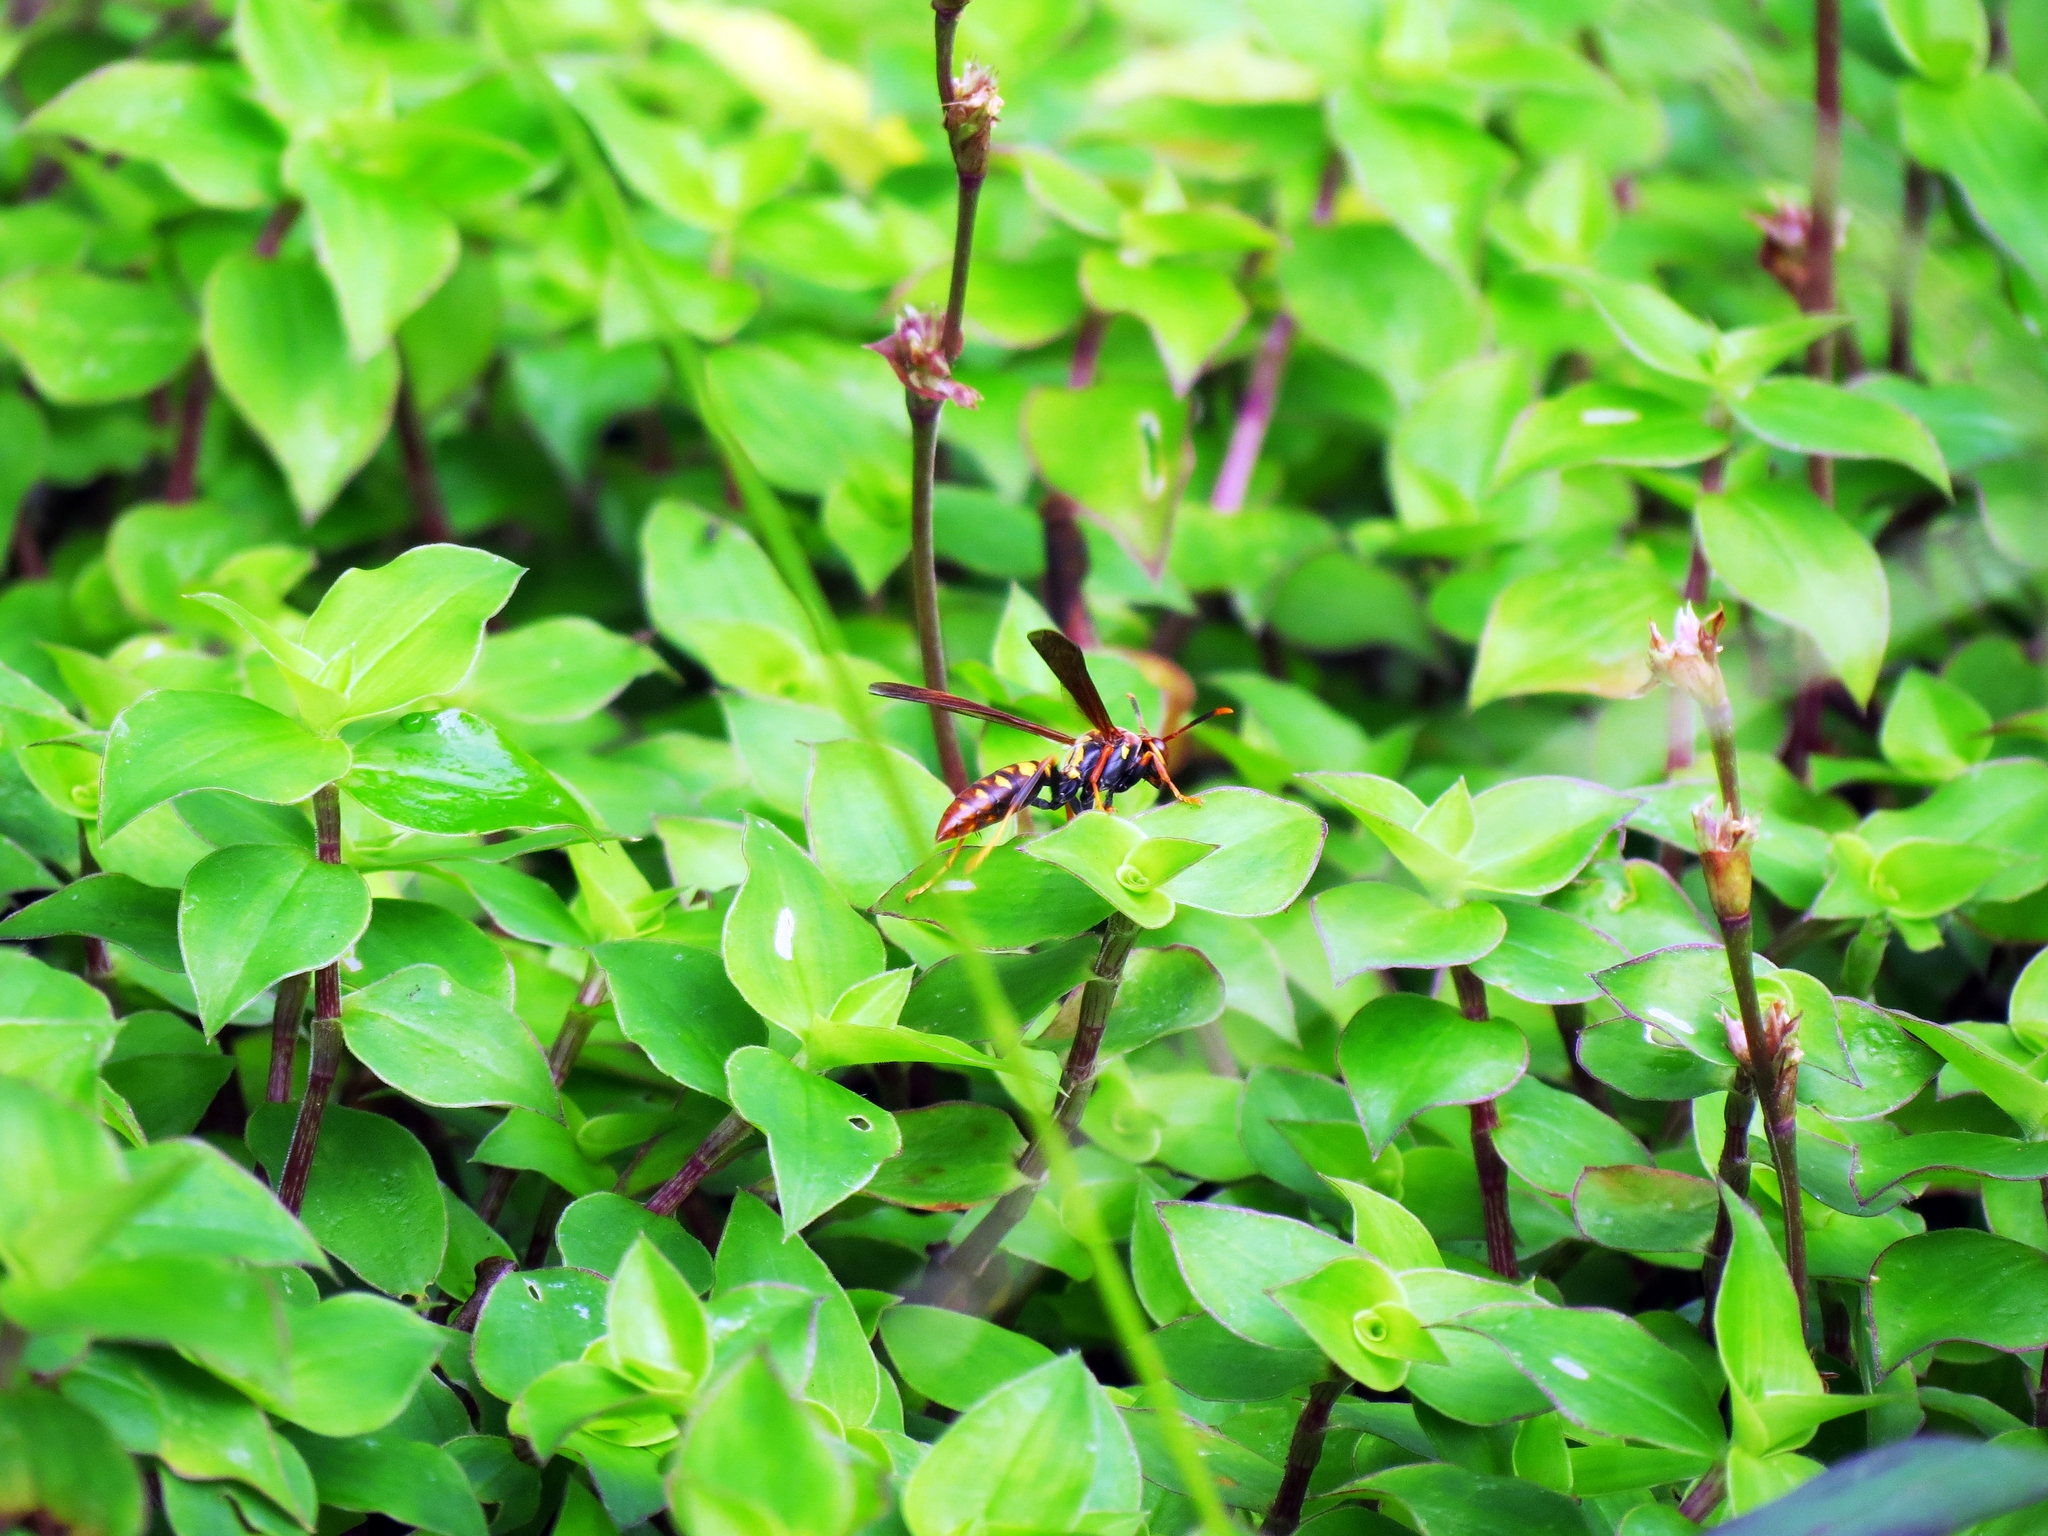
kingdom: Animalia
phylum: Arthropoda
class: Insecta
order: Hymenoptera
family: Eumenidae
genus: Polistes
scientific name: Polistes versicolor
